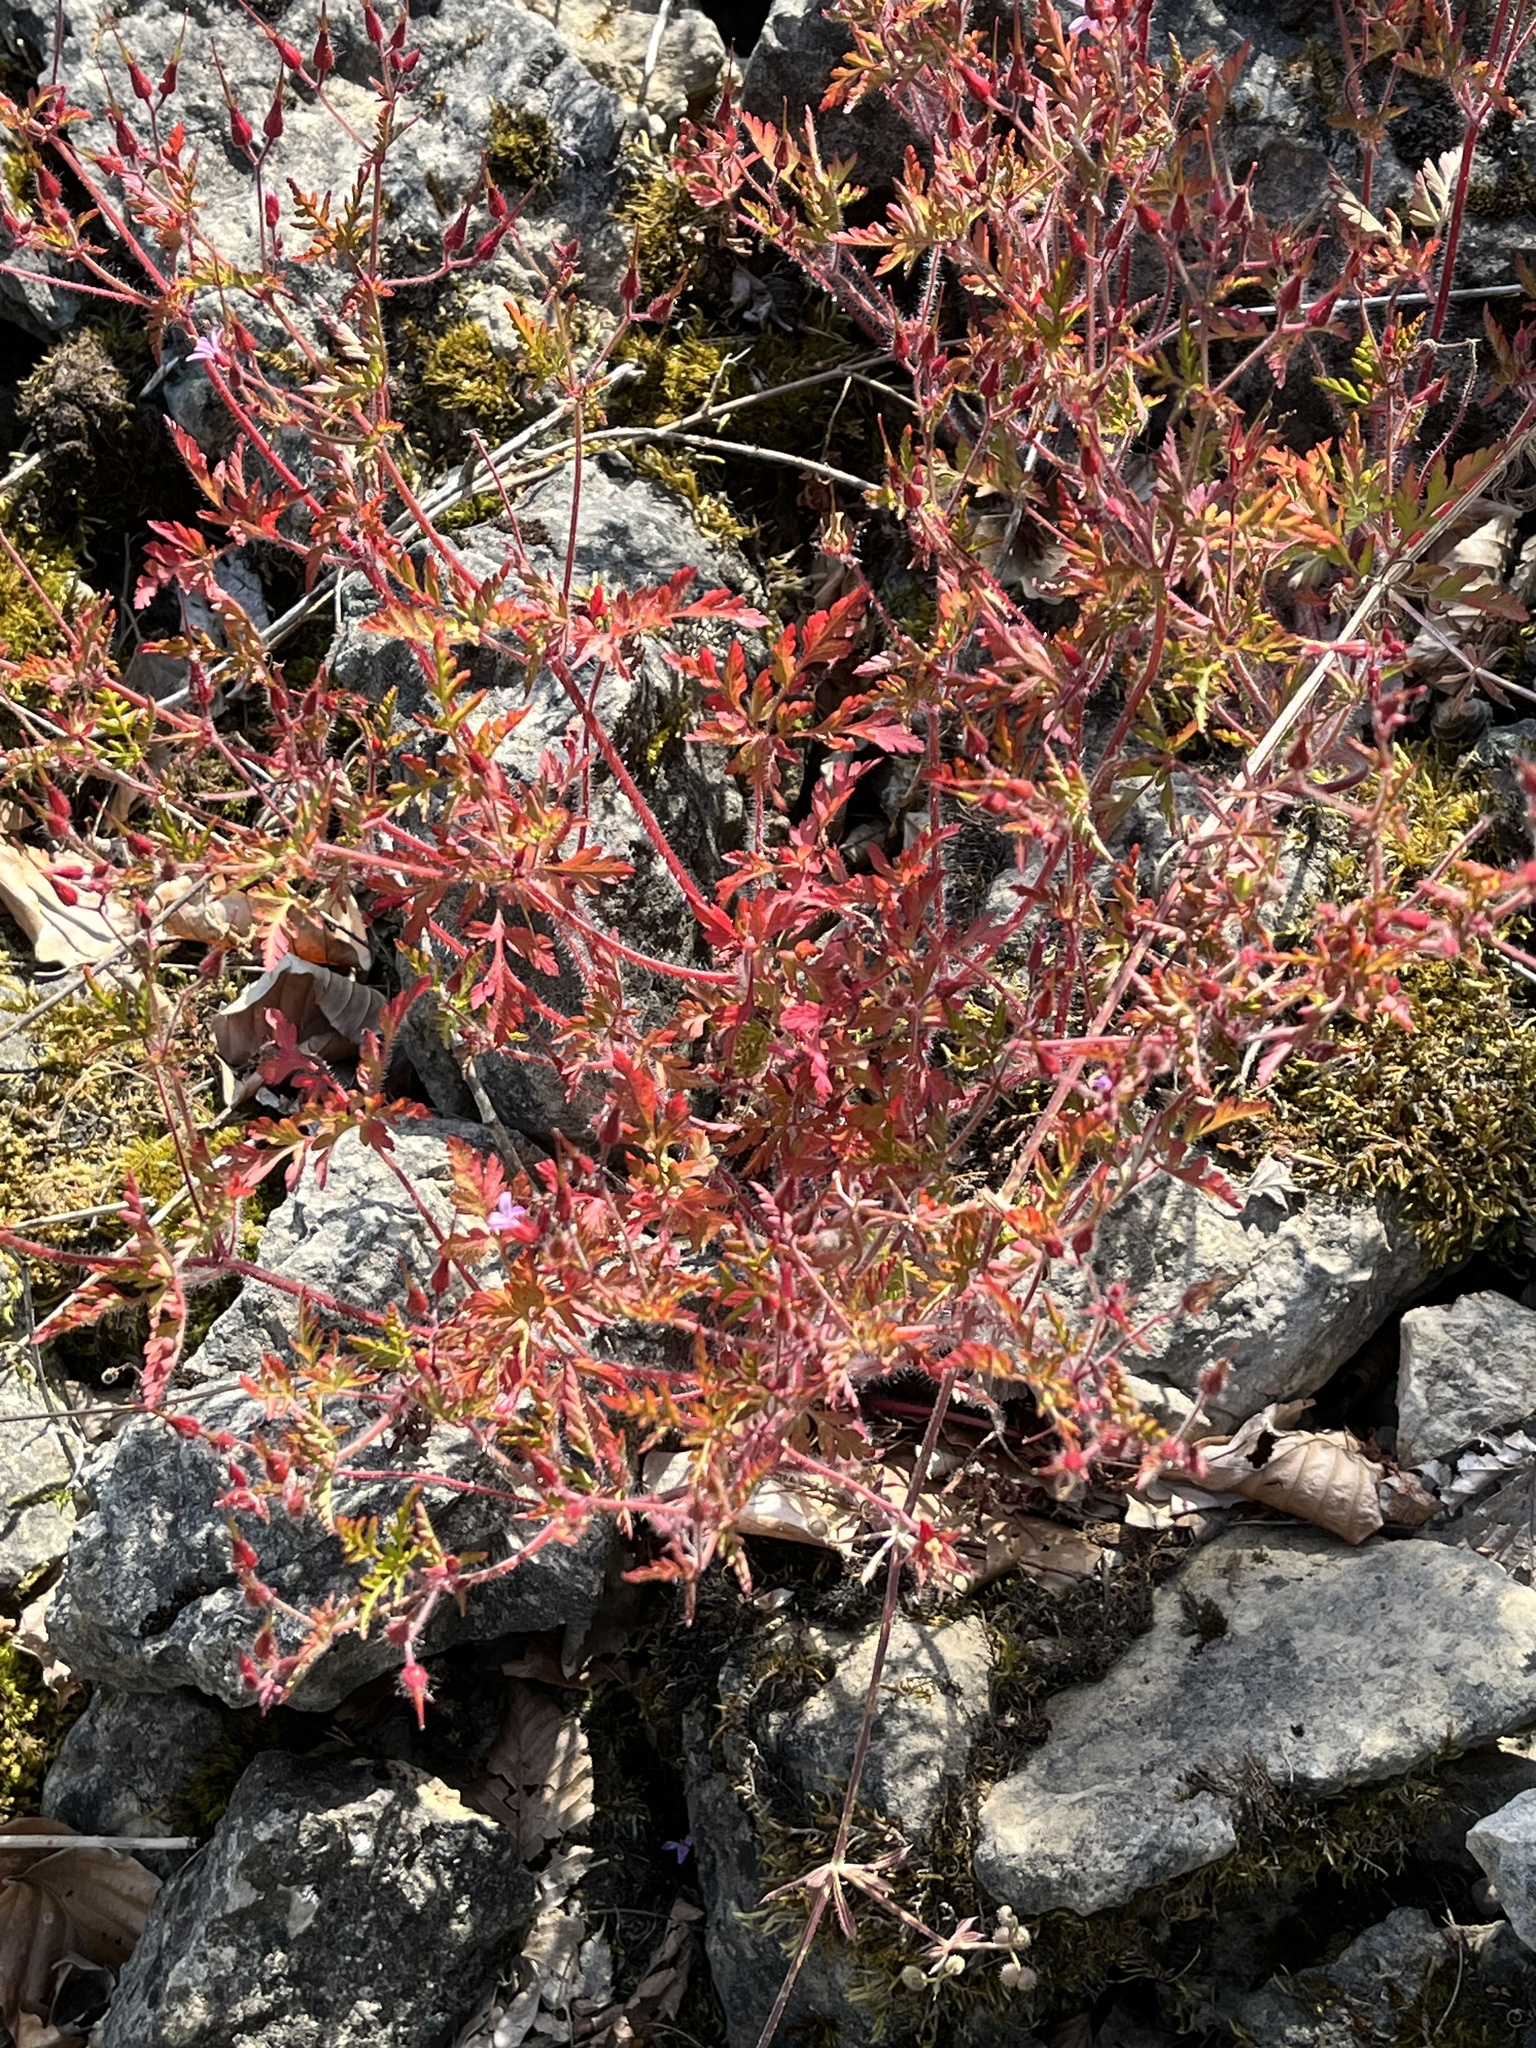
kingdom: Plantae
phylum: Tracheophyta
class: Magnoliopsida
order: Geraniales
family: Geraniaceae
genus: Geranium
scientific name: Geranium robertianum
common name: Herb-robert
